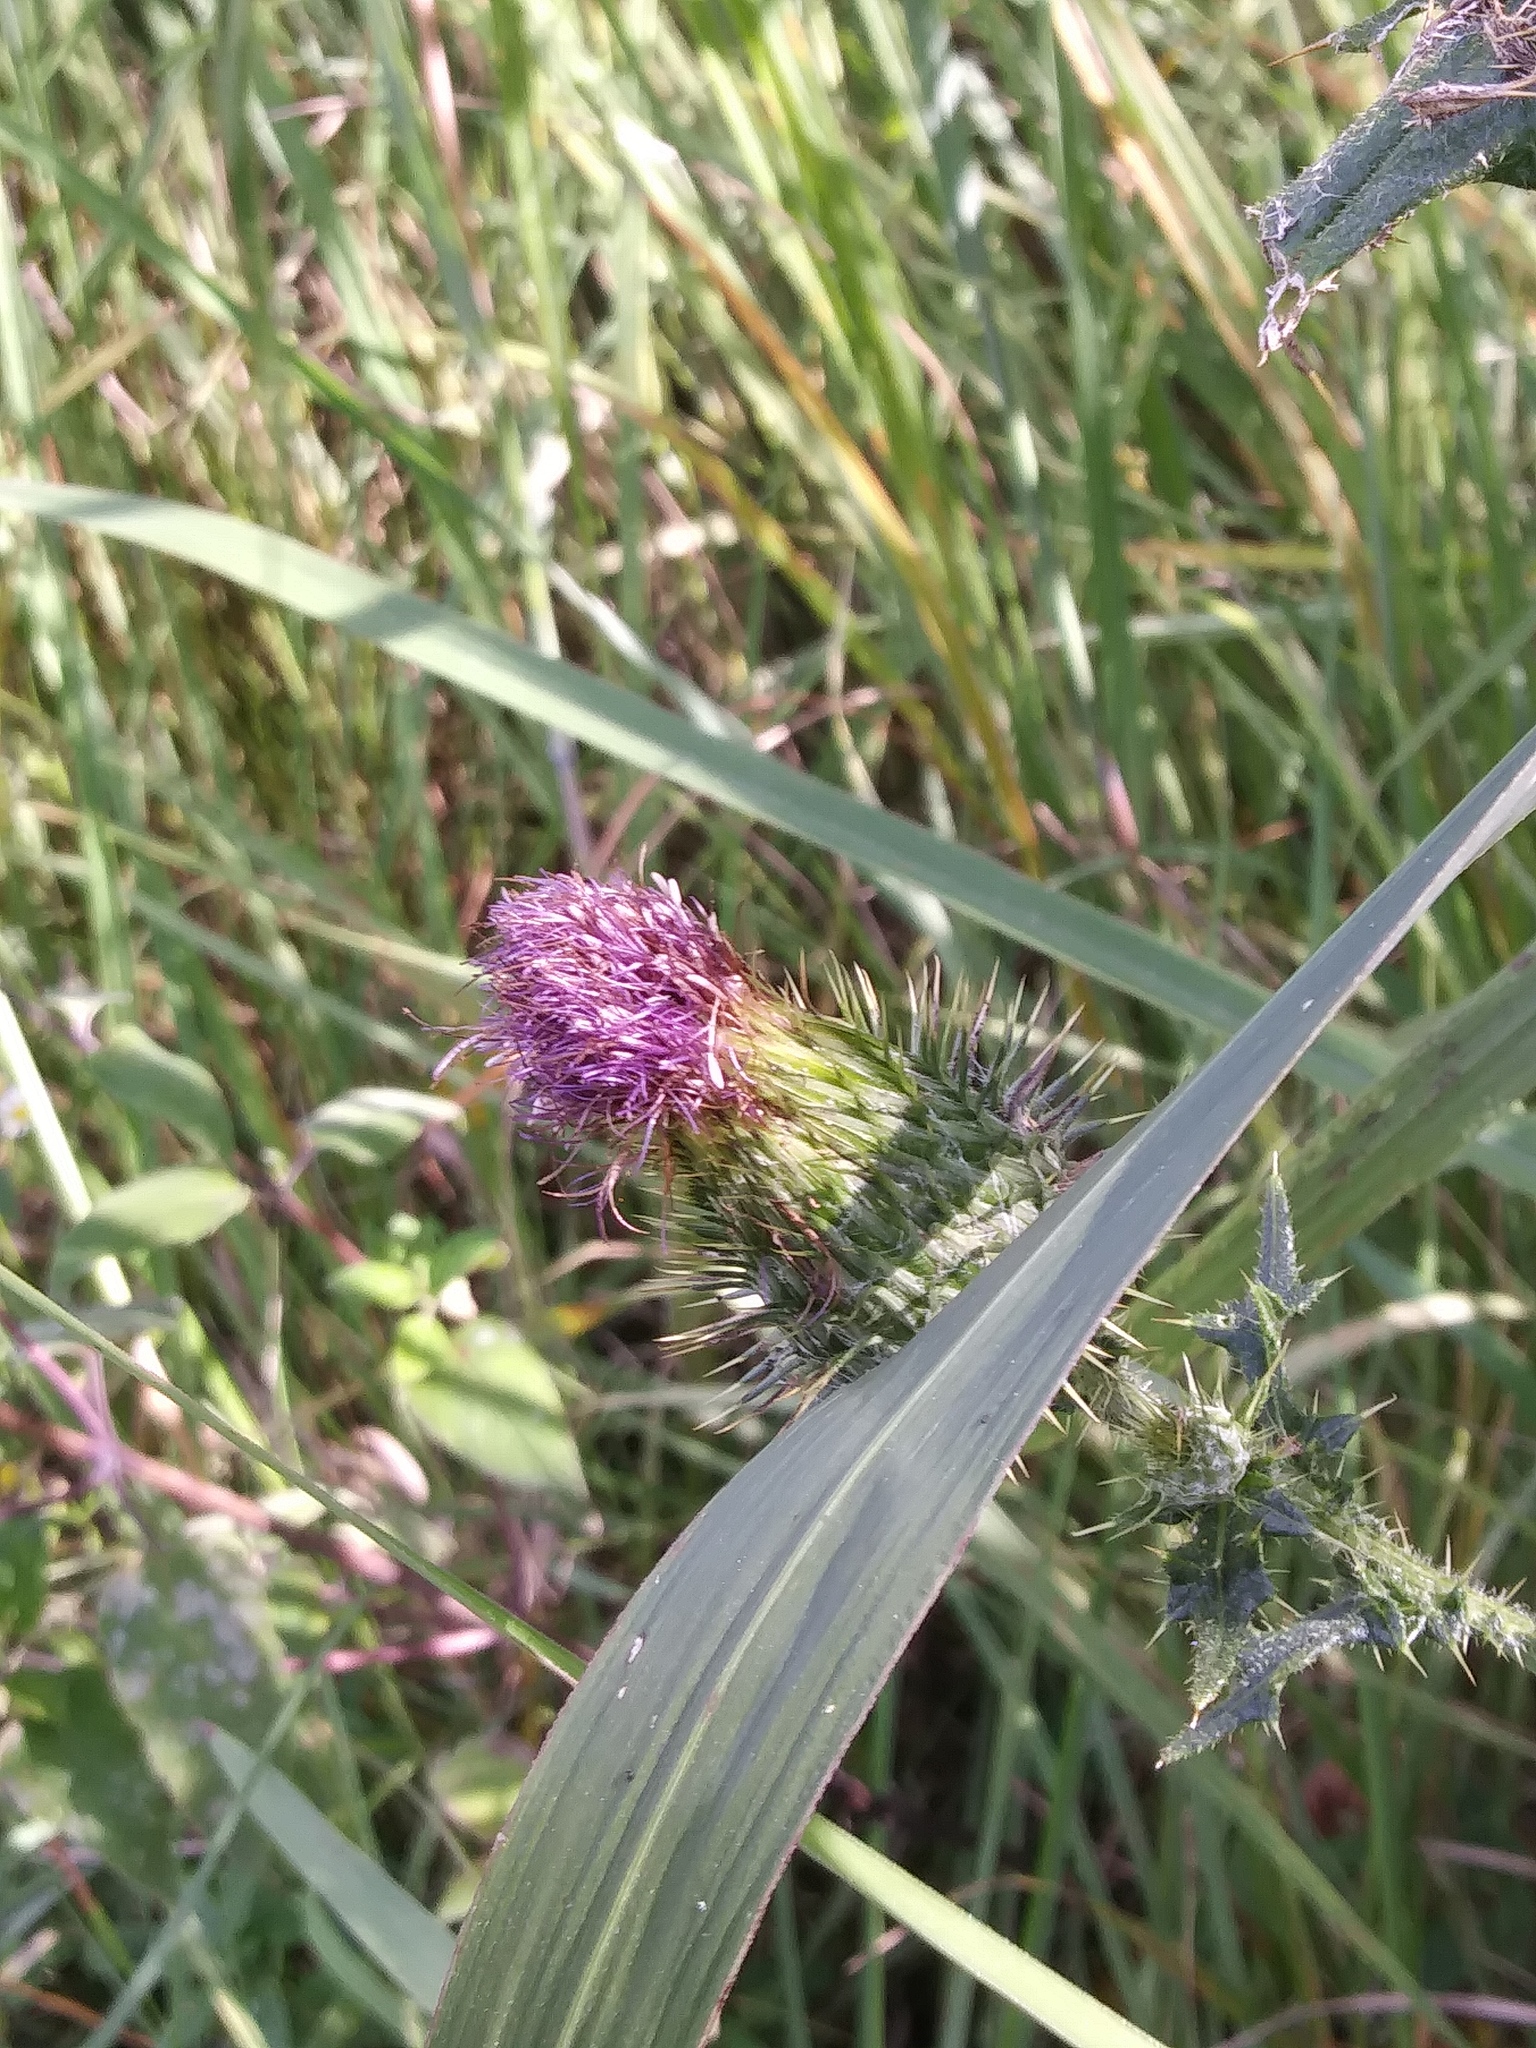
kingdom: Plantae
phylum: Tracheophyta
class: Magnoliopsida
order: Asterales
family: Asteraceae
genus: Cirsium
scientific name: Cirsium vulgare
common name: Bull thistle
